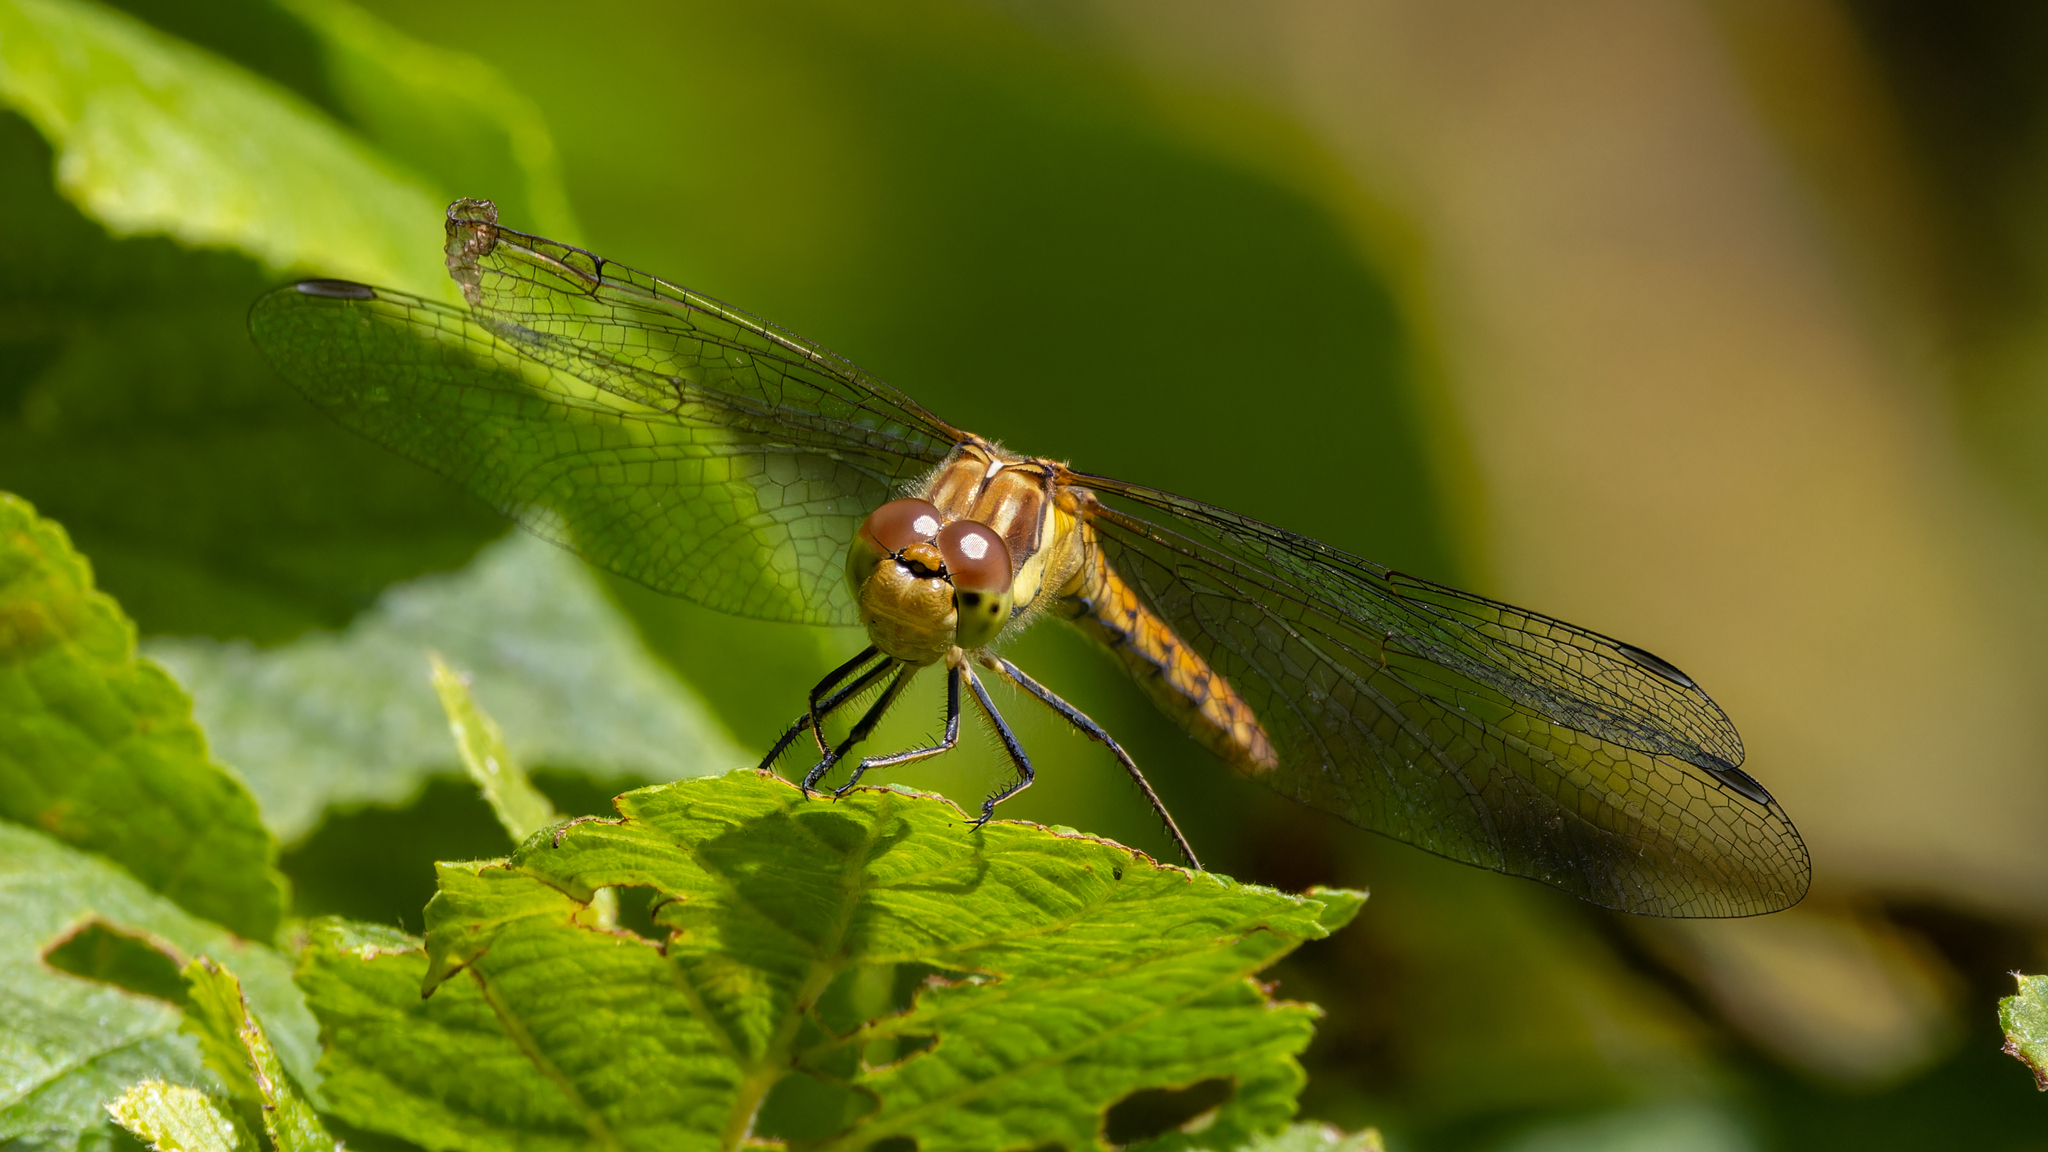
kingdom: Animalia
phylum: Arthropoda
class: Insecta
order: Odonata
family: Libellulidae
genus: Sympetrum
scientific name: Sympetrum striolatum
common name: Common darter
